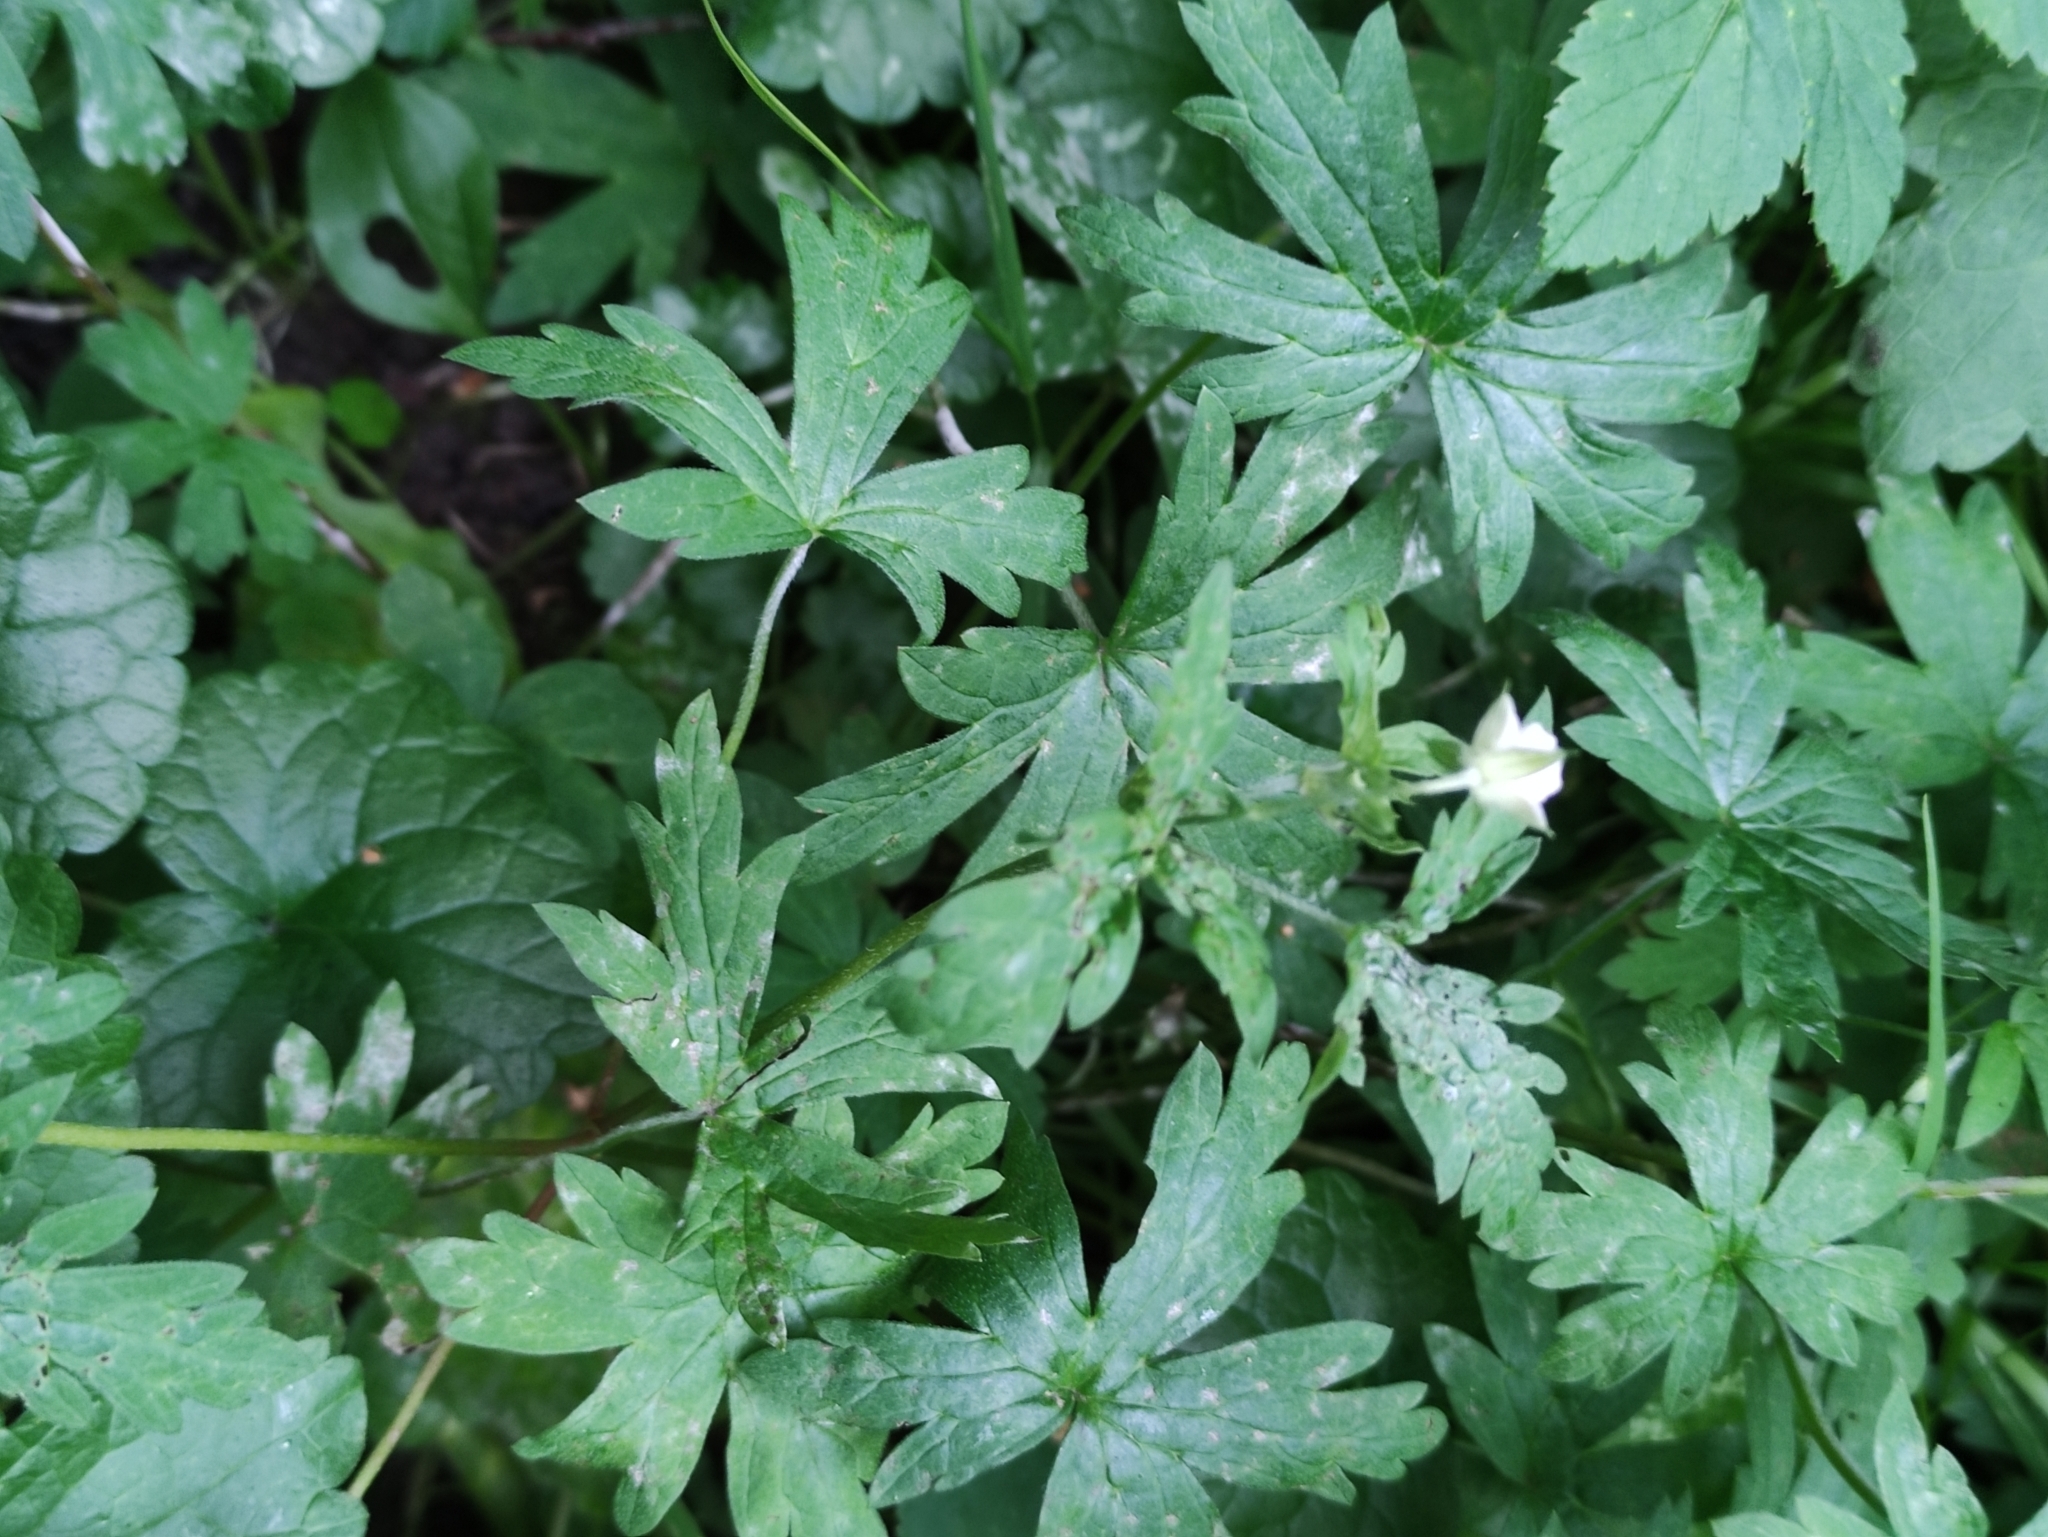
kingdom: Plantae
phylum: Tracheophyta
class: Magnoliopsida
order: Geraniales
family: Geraniaceae
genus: Geranium
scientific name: Geranium sibiricum
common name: Siberian crane's-bill
